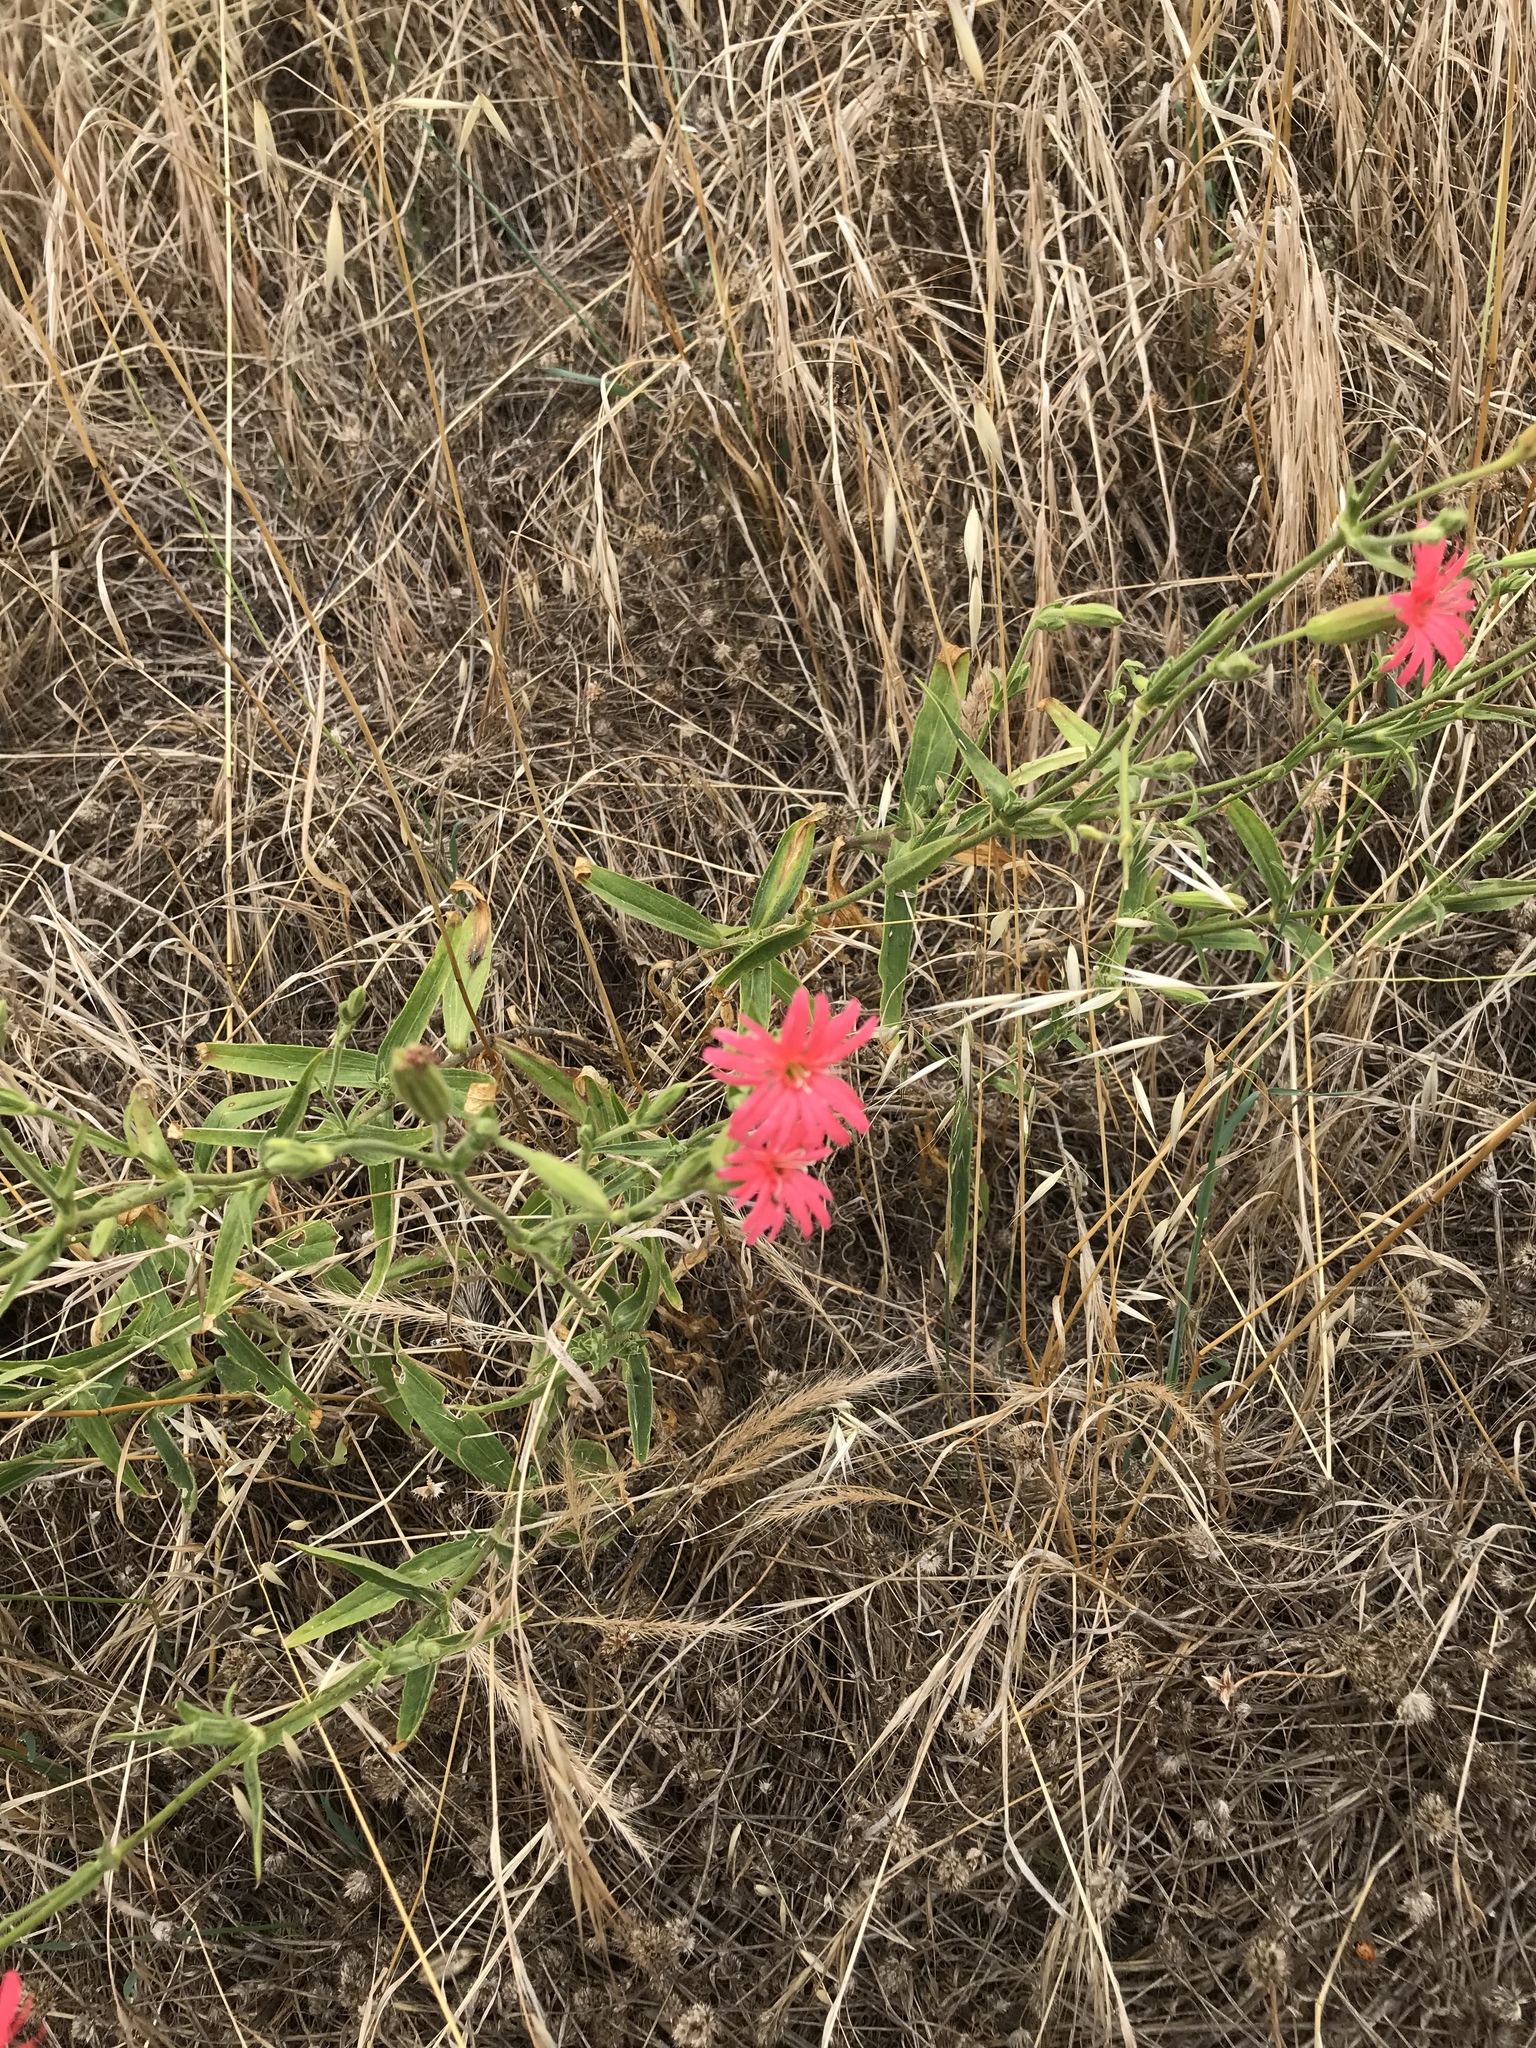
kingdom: Plantae
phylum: Tracheophyta
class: Magnoliopsida
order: Caryophyllales
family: Caryophyllaceae
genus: Silene
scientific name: Silene laciniata
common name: Indian-pink
